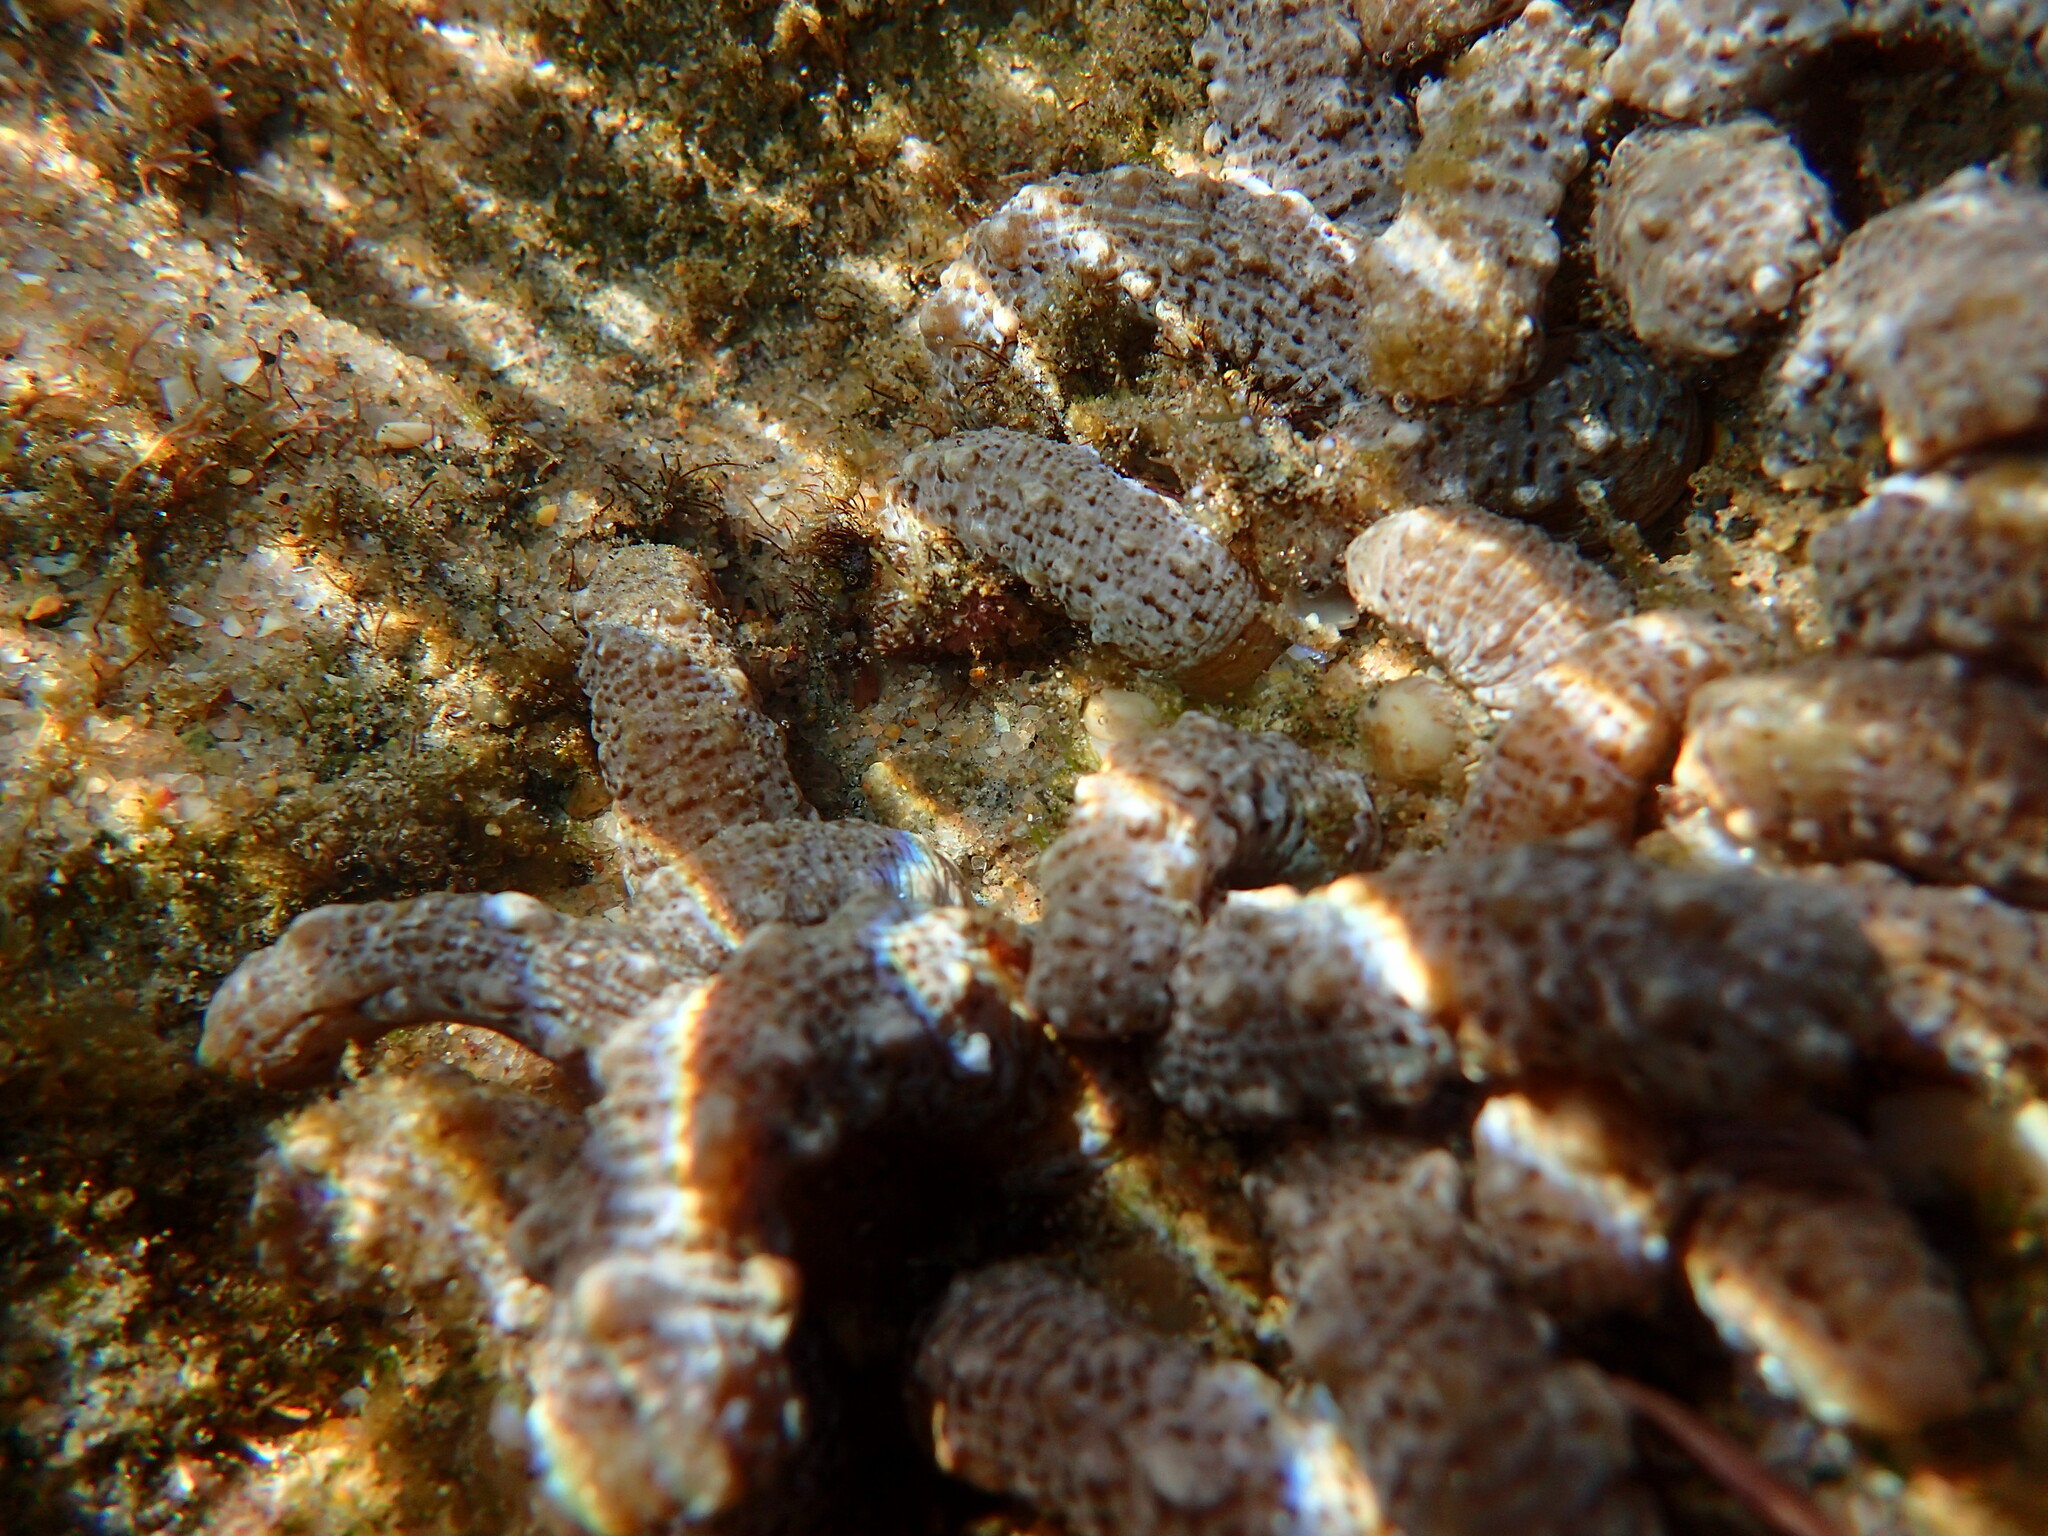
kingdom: Animalia
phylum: Cnidaria
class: Anthozoa
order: Zoantharia
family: Zoanthidae
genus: Isaurus
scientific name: Isaurus tuberculatus
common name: Duchassaing's colonial anemone
